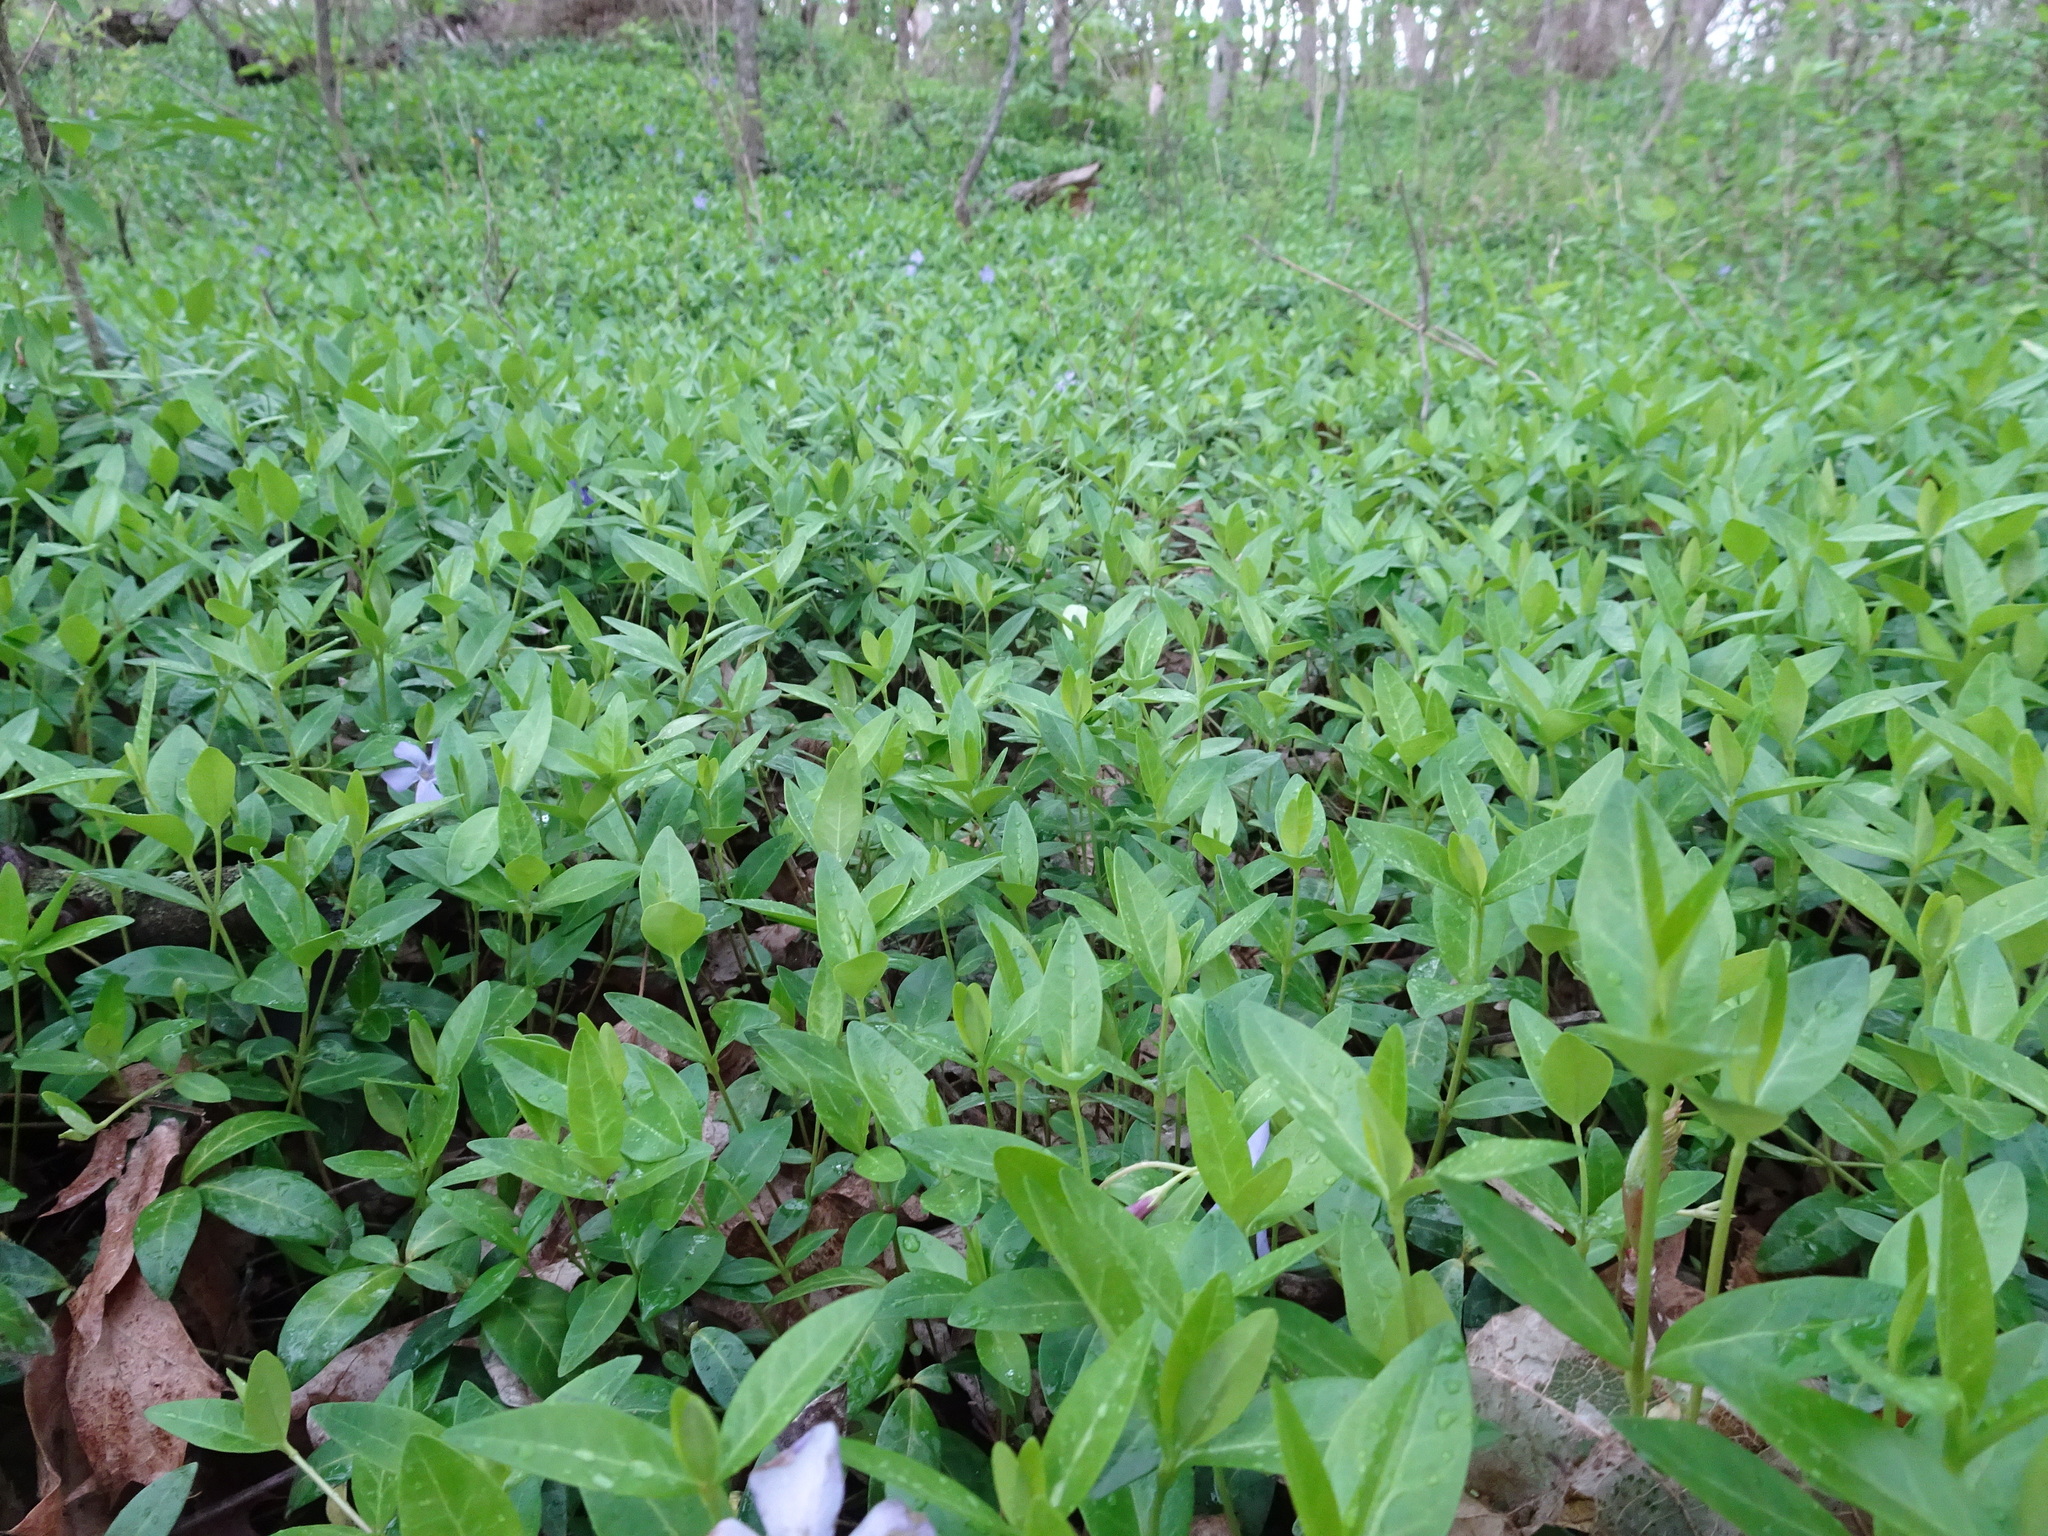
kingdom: Plantae
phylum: Tracheophyta
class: Magnoliopsida
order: Gentianales
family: Apocynaceae
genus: Vinca
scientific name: Vinca minor
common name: Lesser periwinkle
